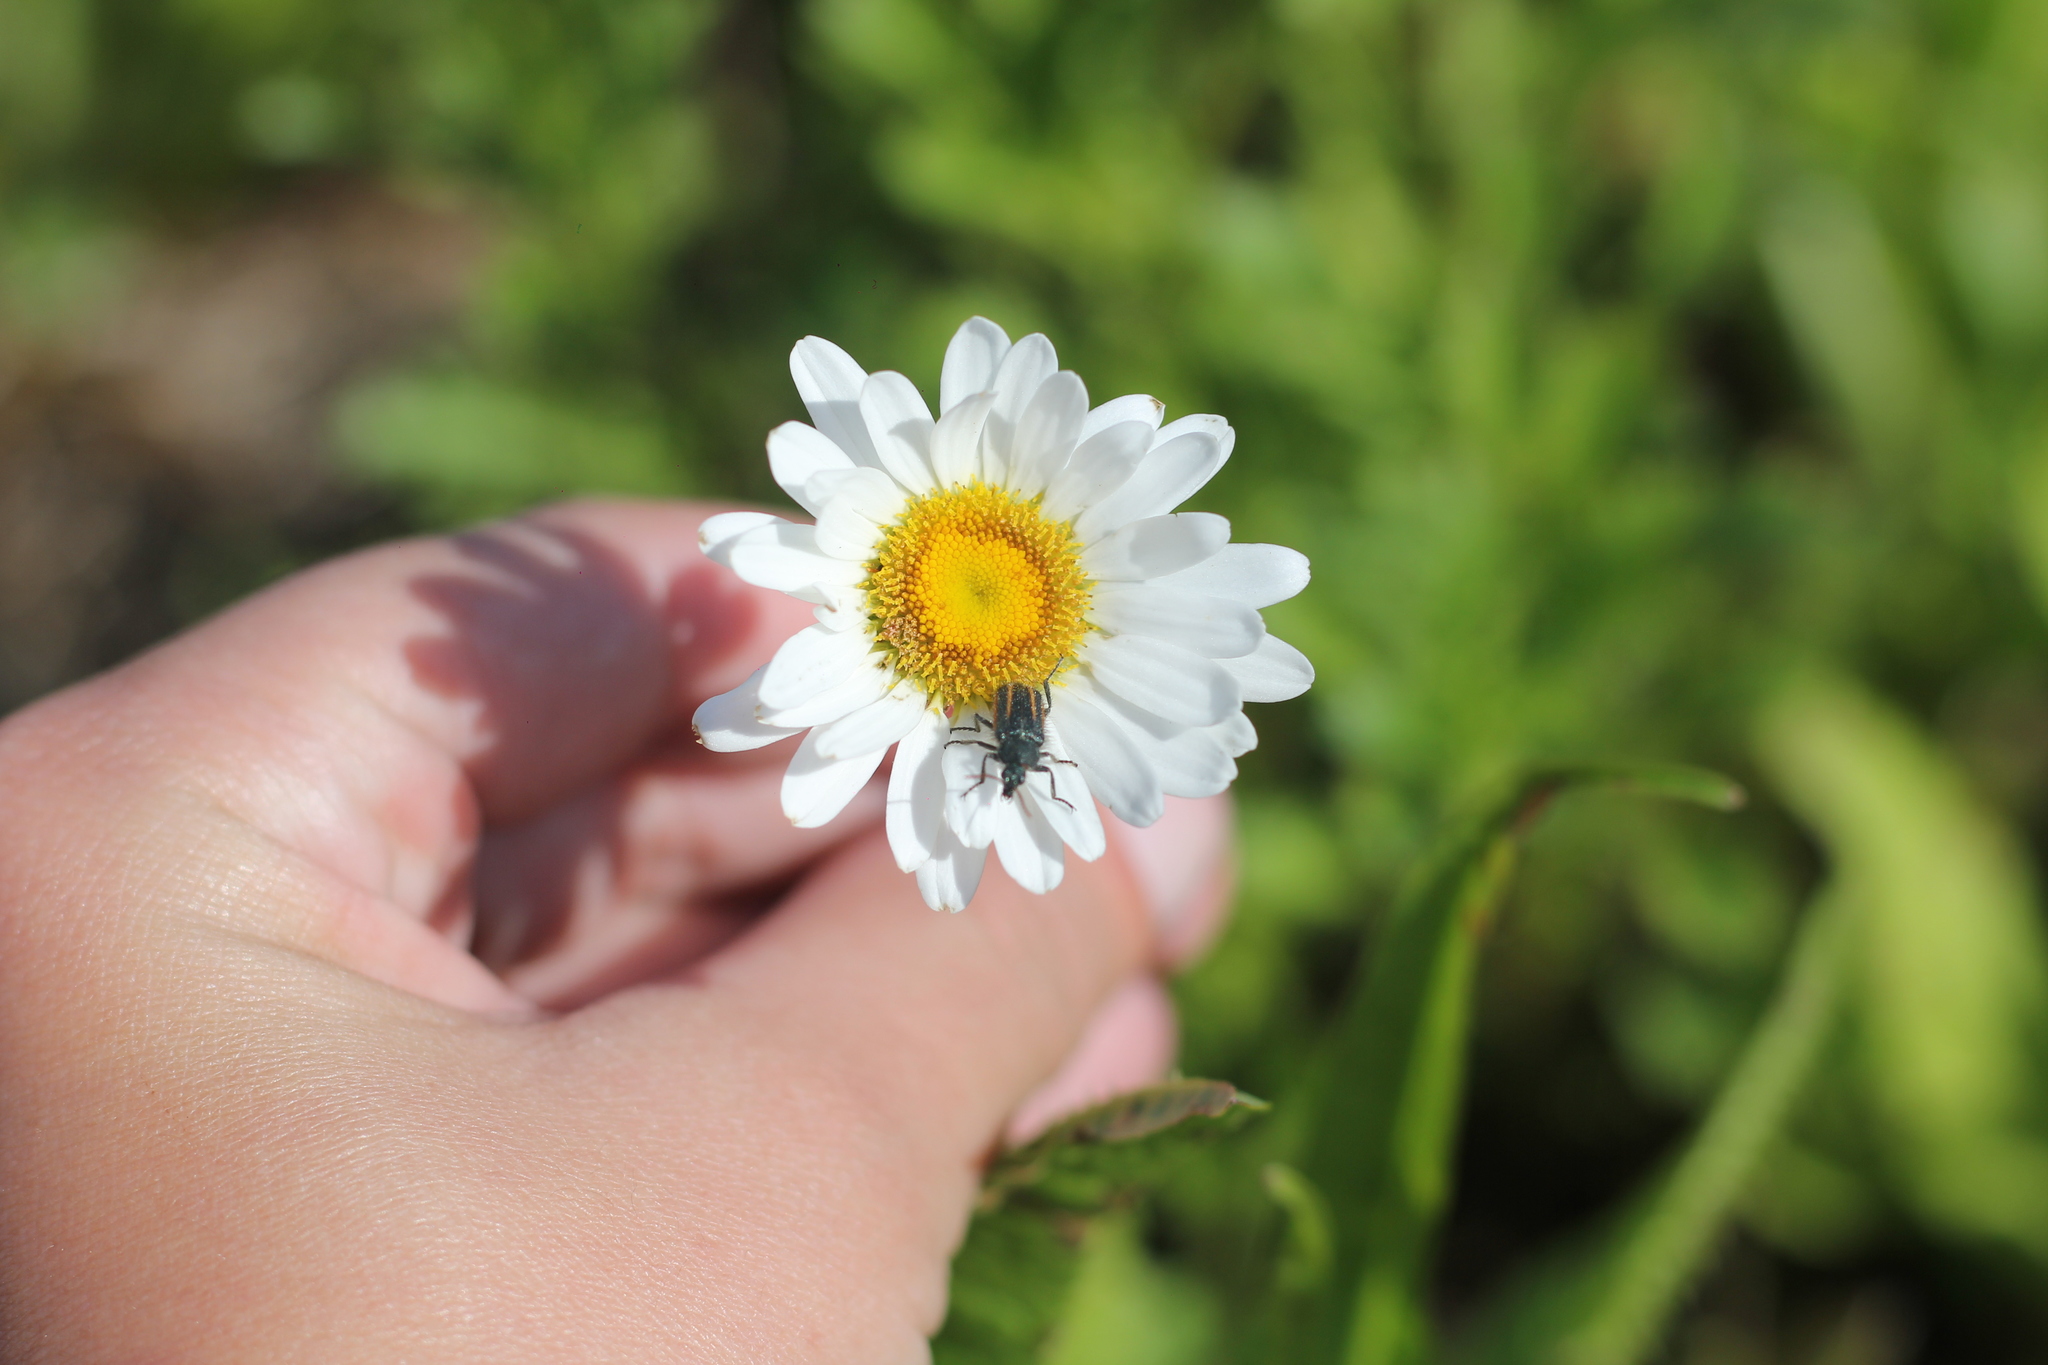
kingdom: Animalia
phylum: Arthropoda
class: Insecta
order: Coleoptera
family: Melyridae
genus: Astylus
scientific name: Astylus
